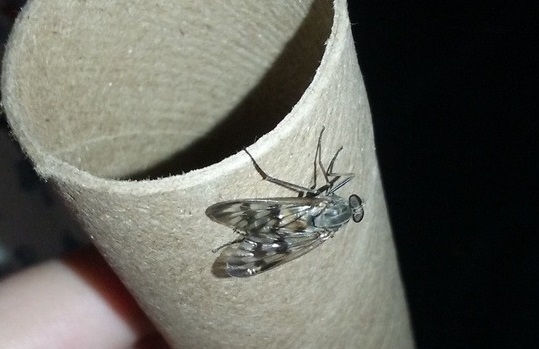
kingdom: Animalia
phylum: Arthropoda
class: Insecta
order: Diptera
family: Rhagionidae
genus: Rhagio
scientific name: Rhagio mystaceus
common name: Common snipe fly
